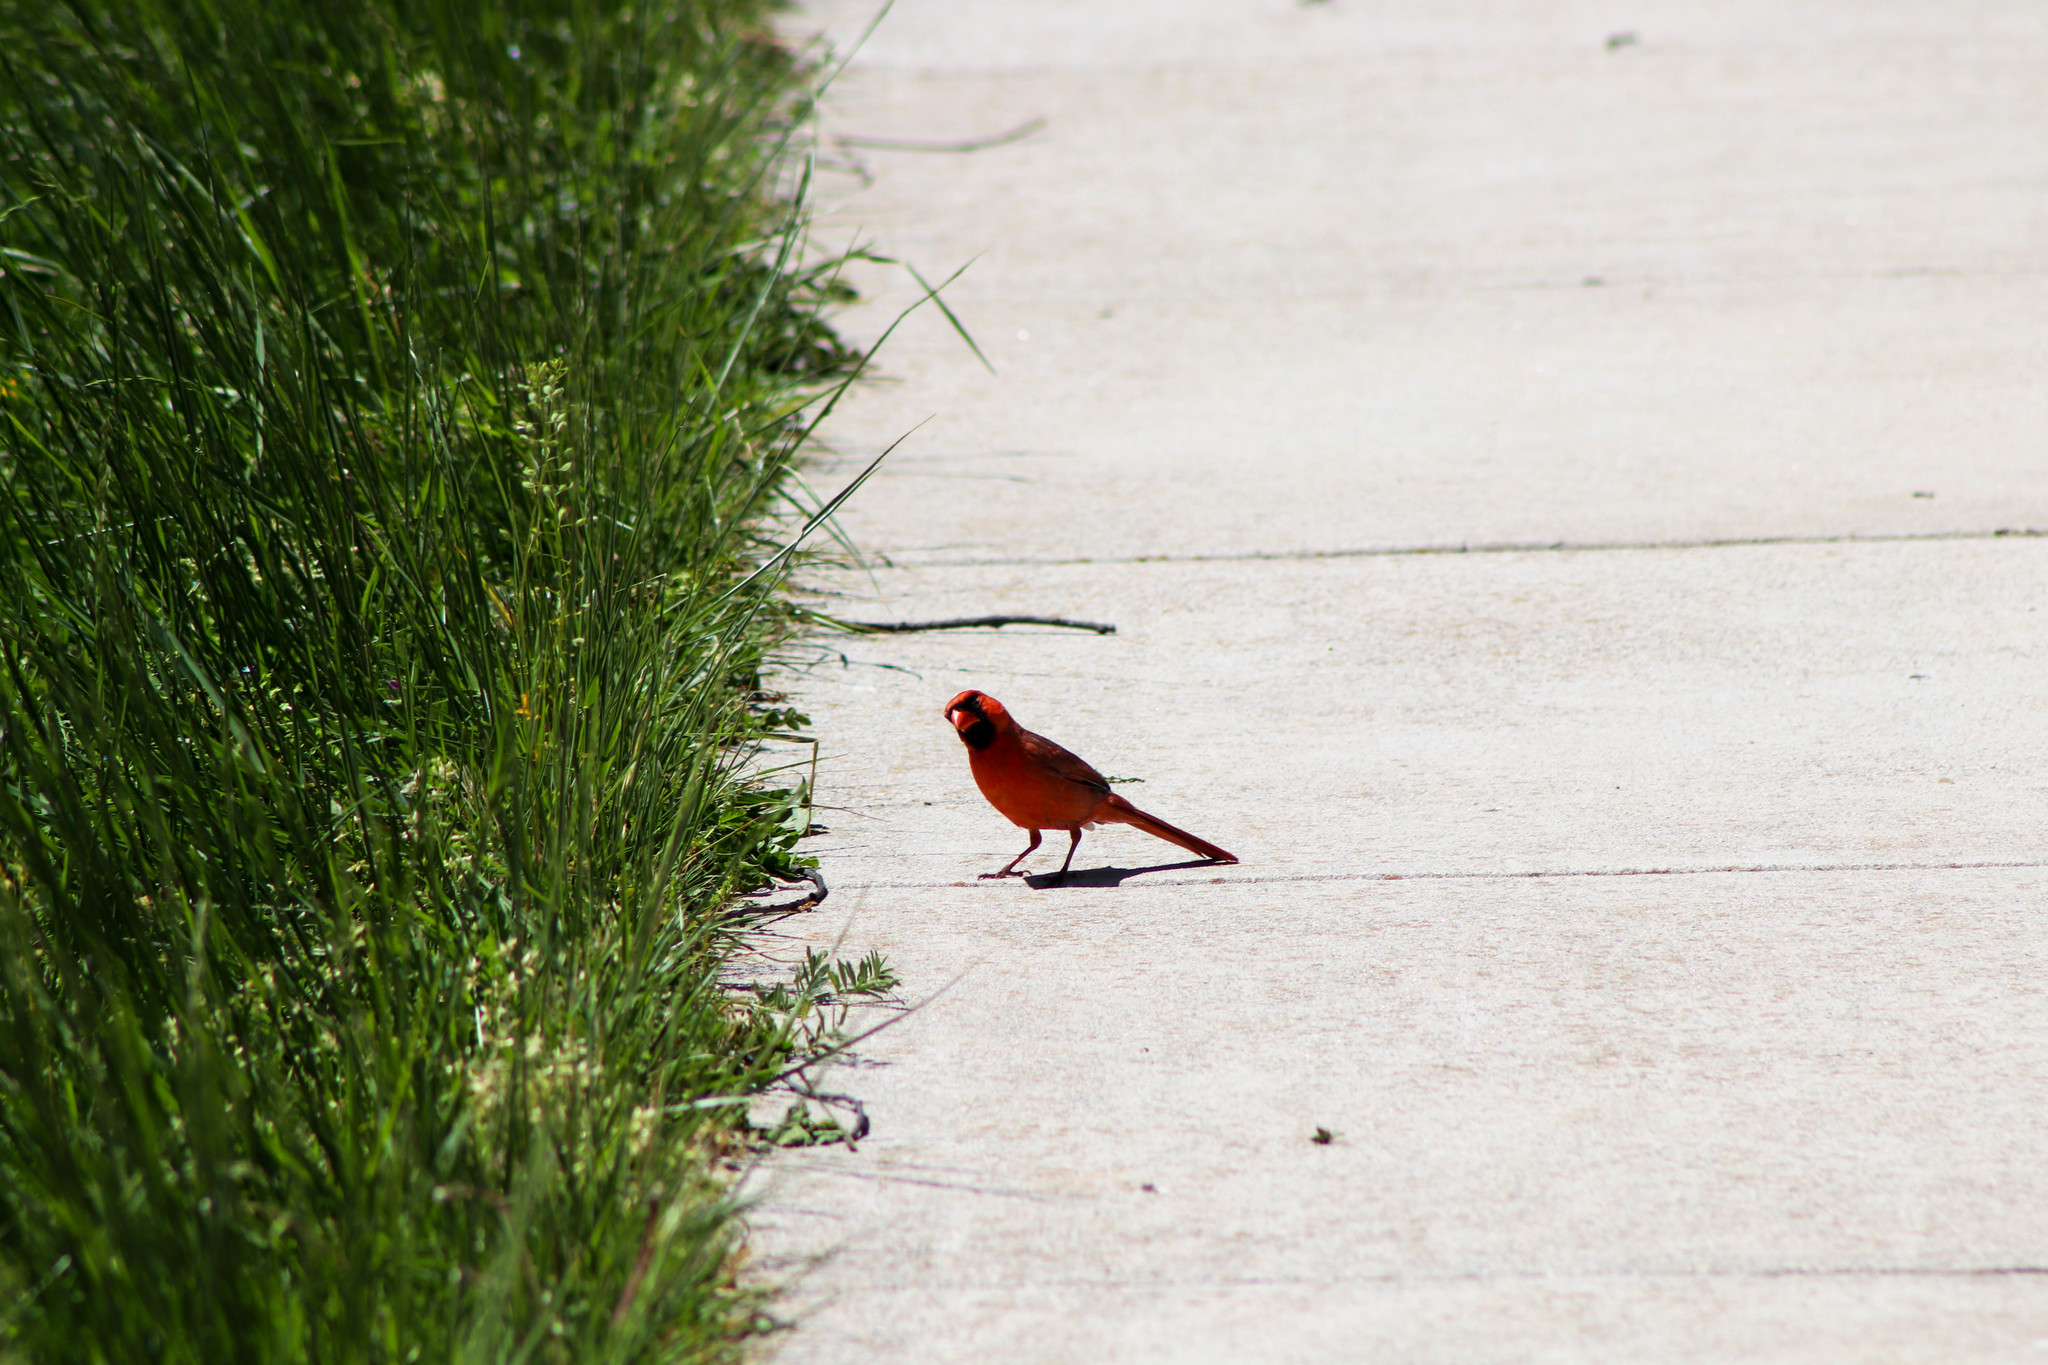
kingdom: Animalia
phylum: Chordata
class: Aves
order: Passeriformes
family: Cardinalidae
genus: Cardinalis
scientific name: Cardinalis cardinalis
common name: Northern cardinal
